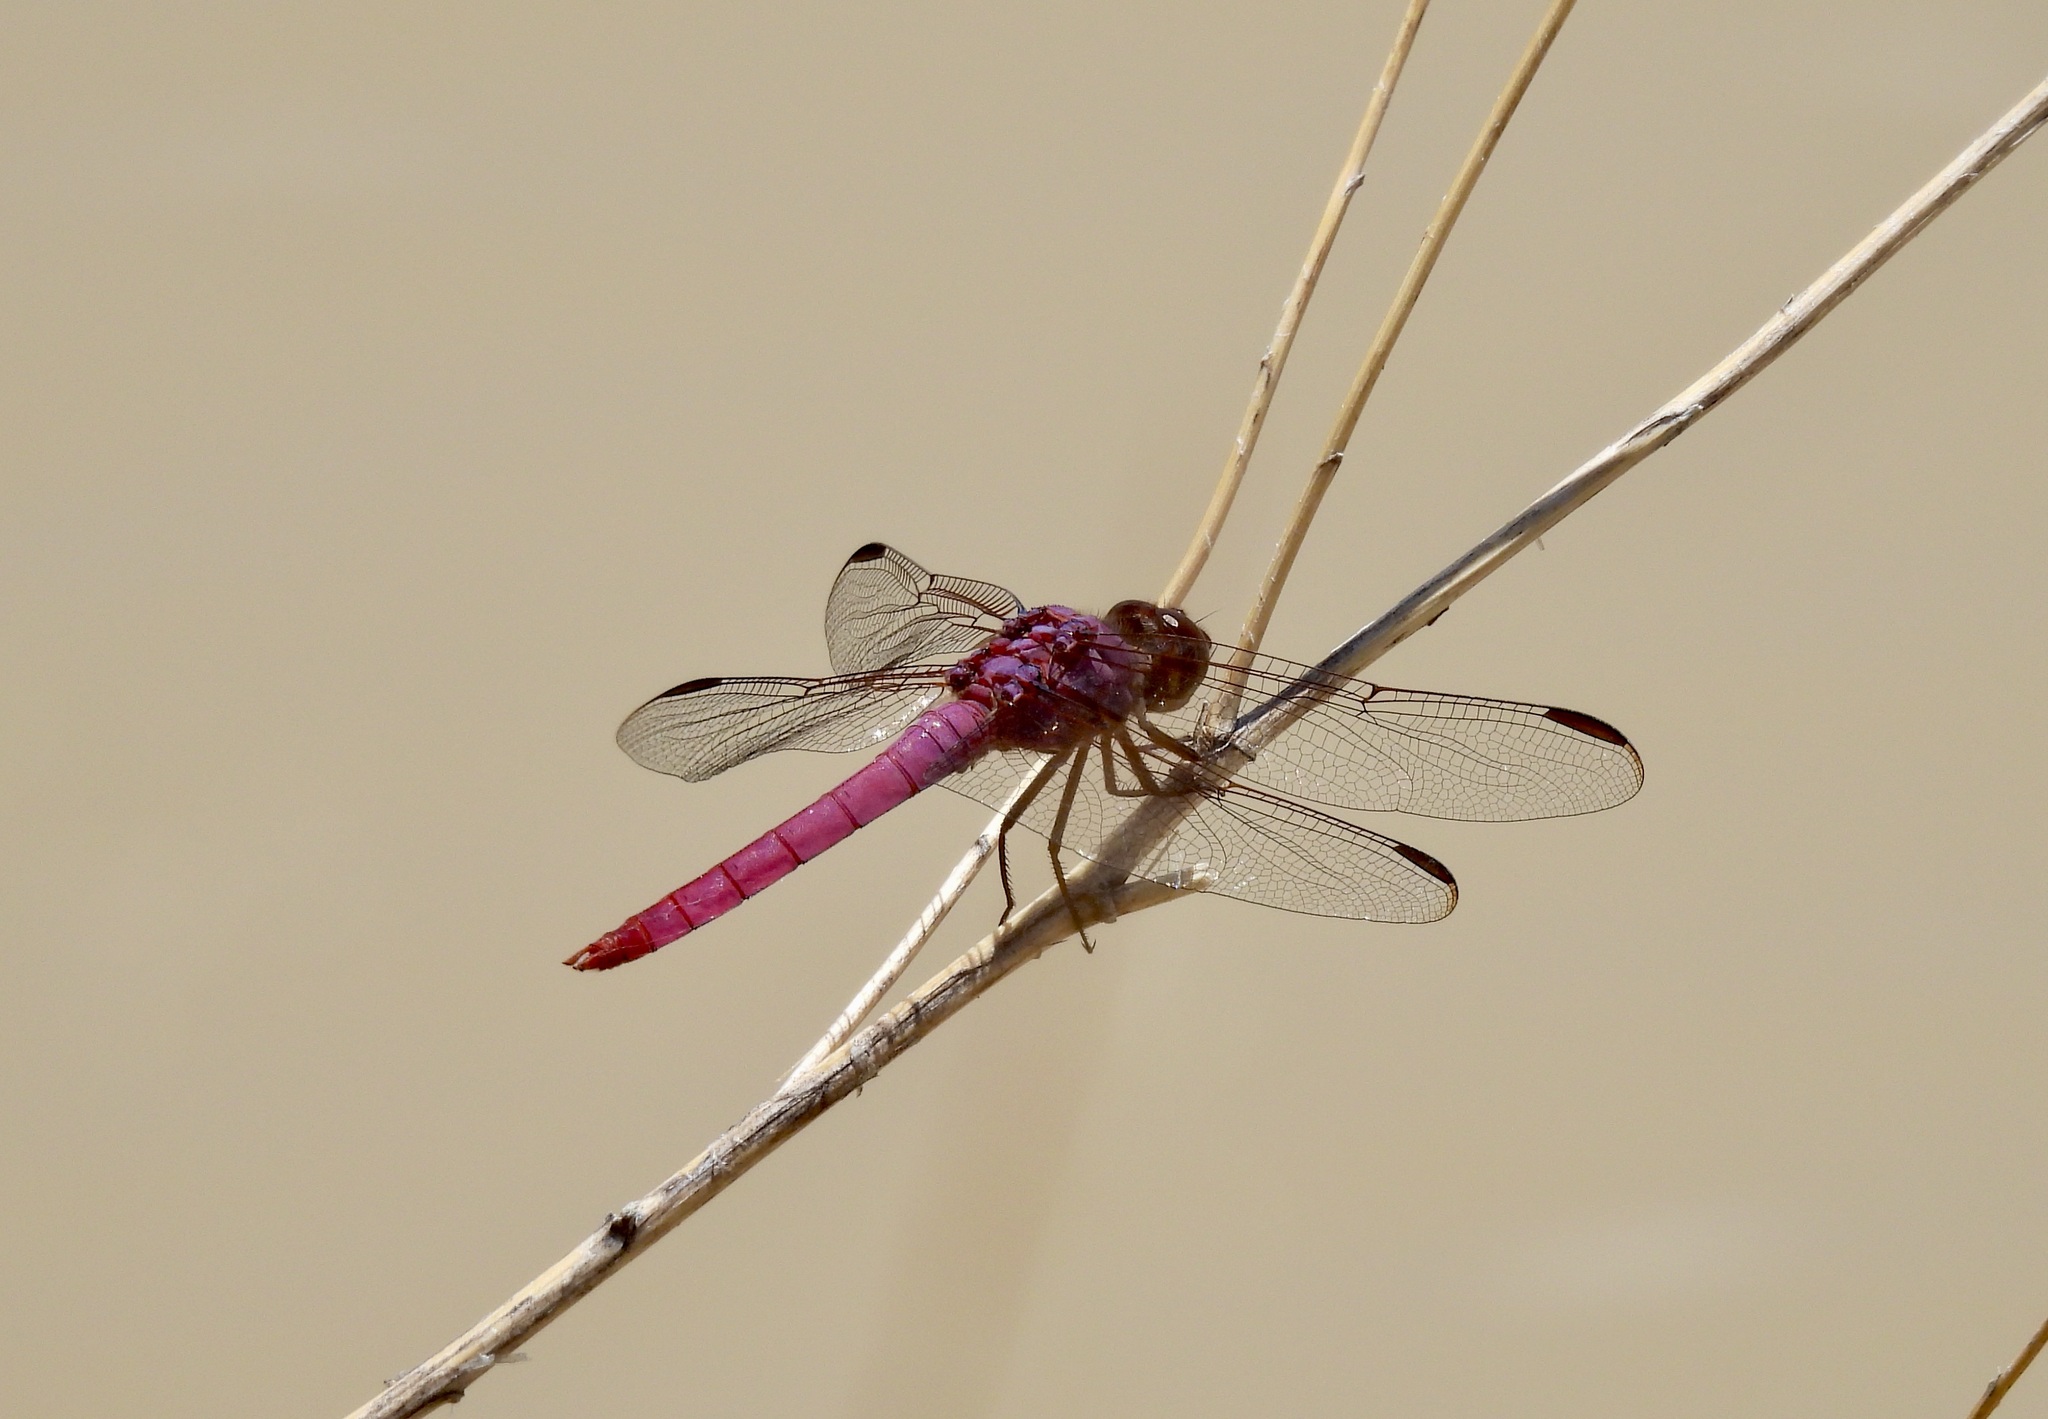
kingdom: Animalia
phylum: Arthropoda
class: Insecta
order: Odonata
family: Libellulidae
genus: Orthemis
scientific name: Orthemis ferruginea
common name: Roseate skimmer
